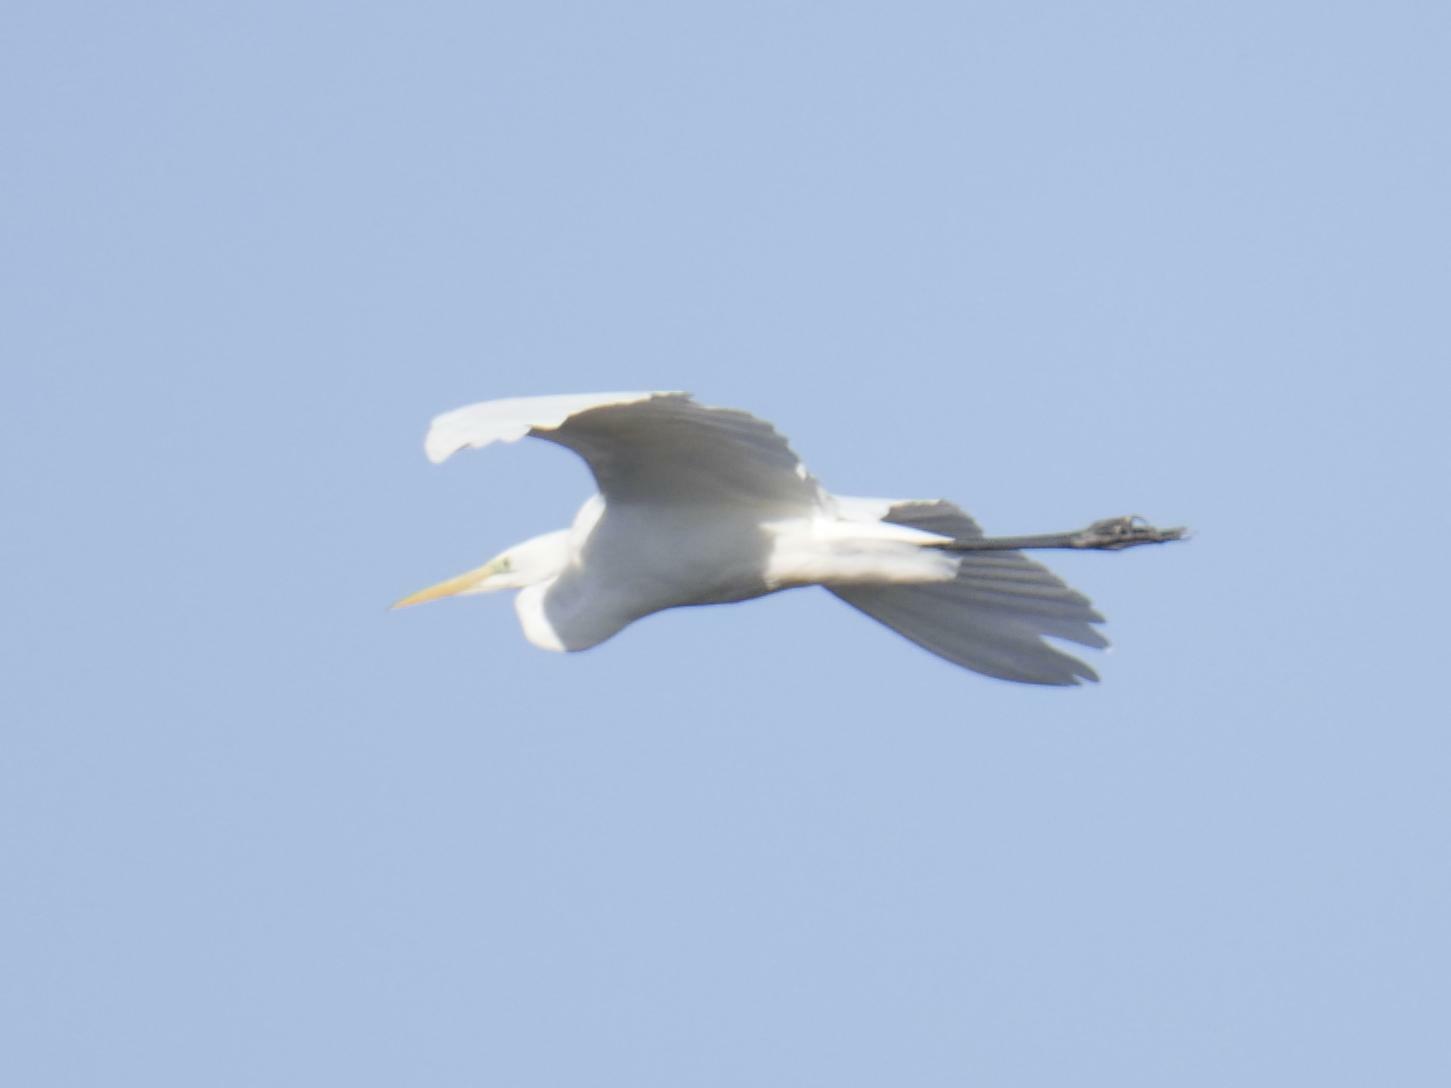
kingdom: Animalia
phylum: Chordata
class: Aves
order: Pelecaniformes
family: Ardeidae
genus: Ardea
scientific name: Ardea alba
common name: Great egret
